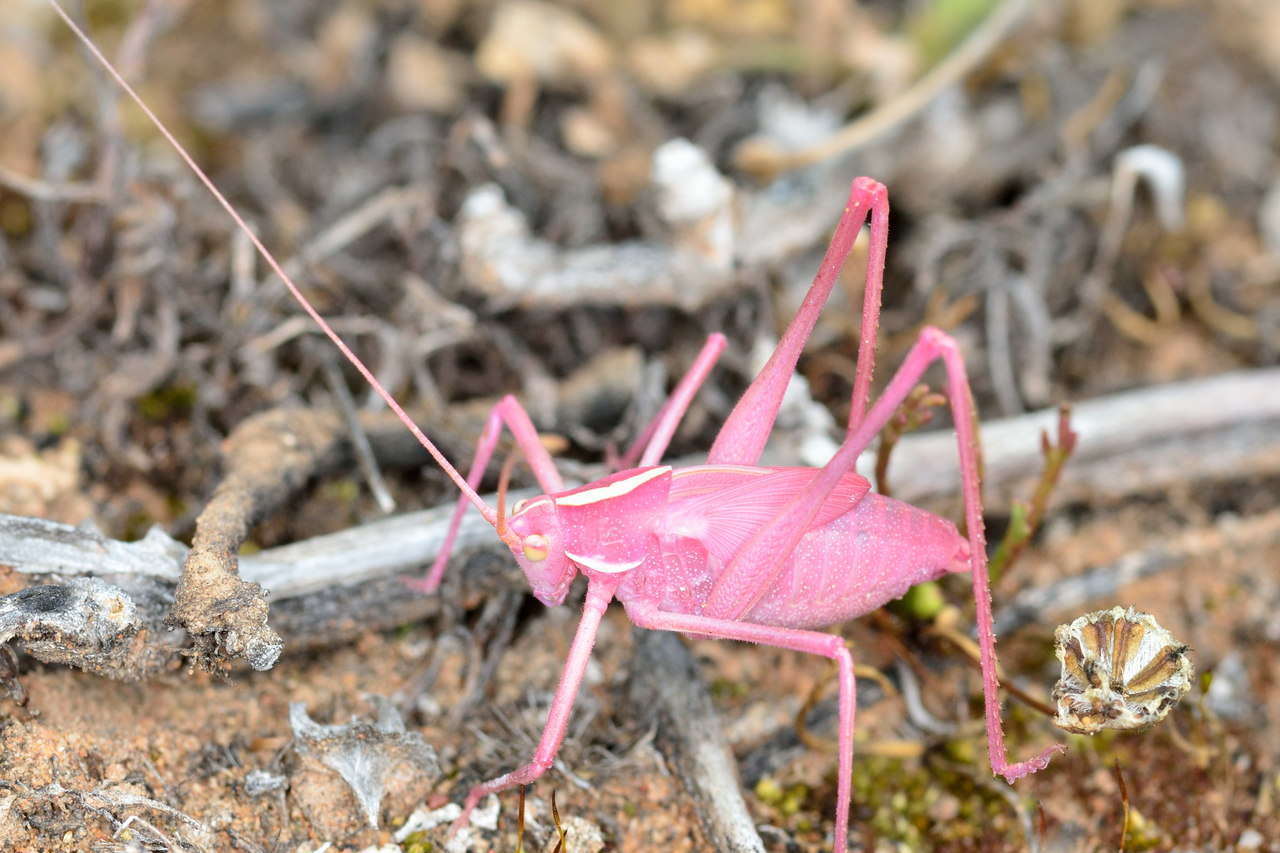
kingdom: Animalia
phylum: Arthropoda
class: Insecta
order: Orthoptera
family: Tettigoniidae
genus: Tinzeda
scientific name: Tinzeda sororoides
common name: Southern tinzeda
